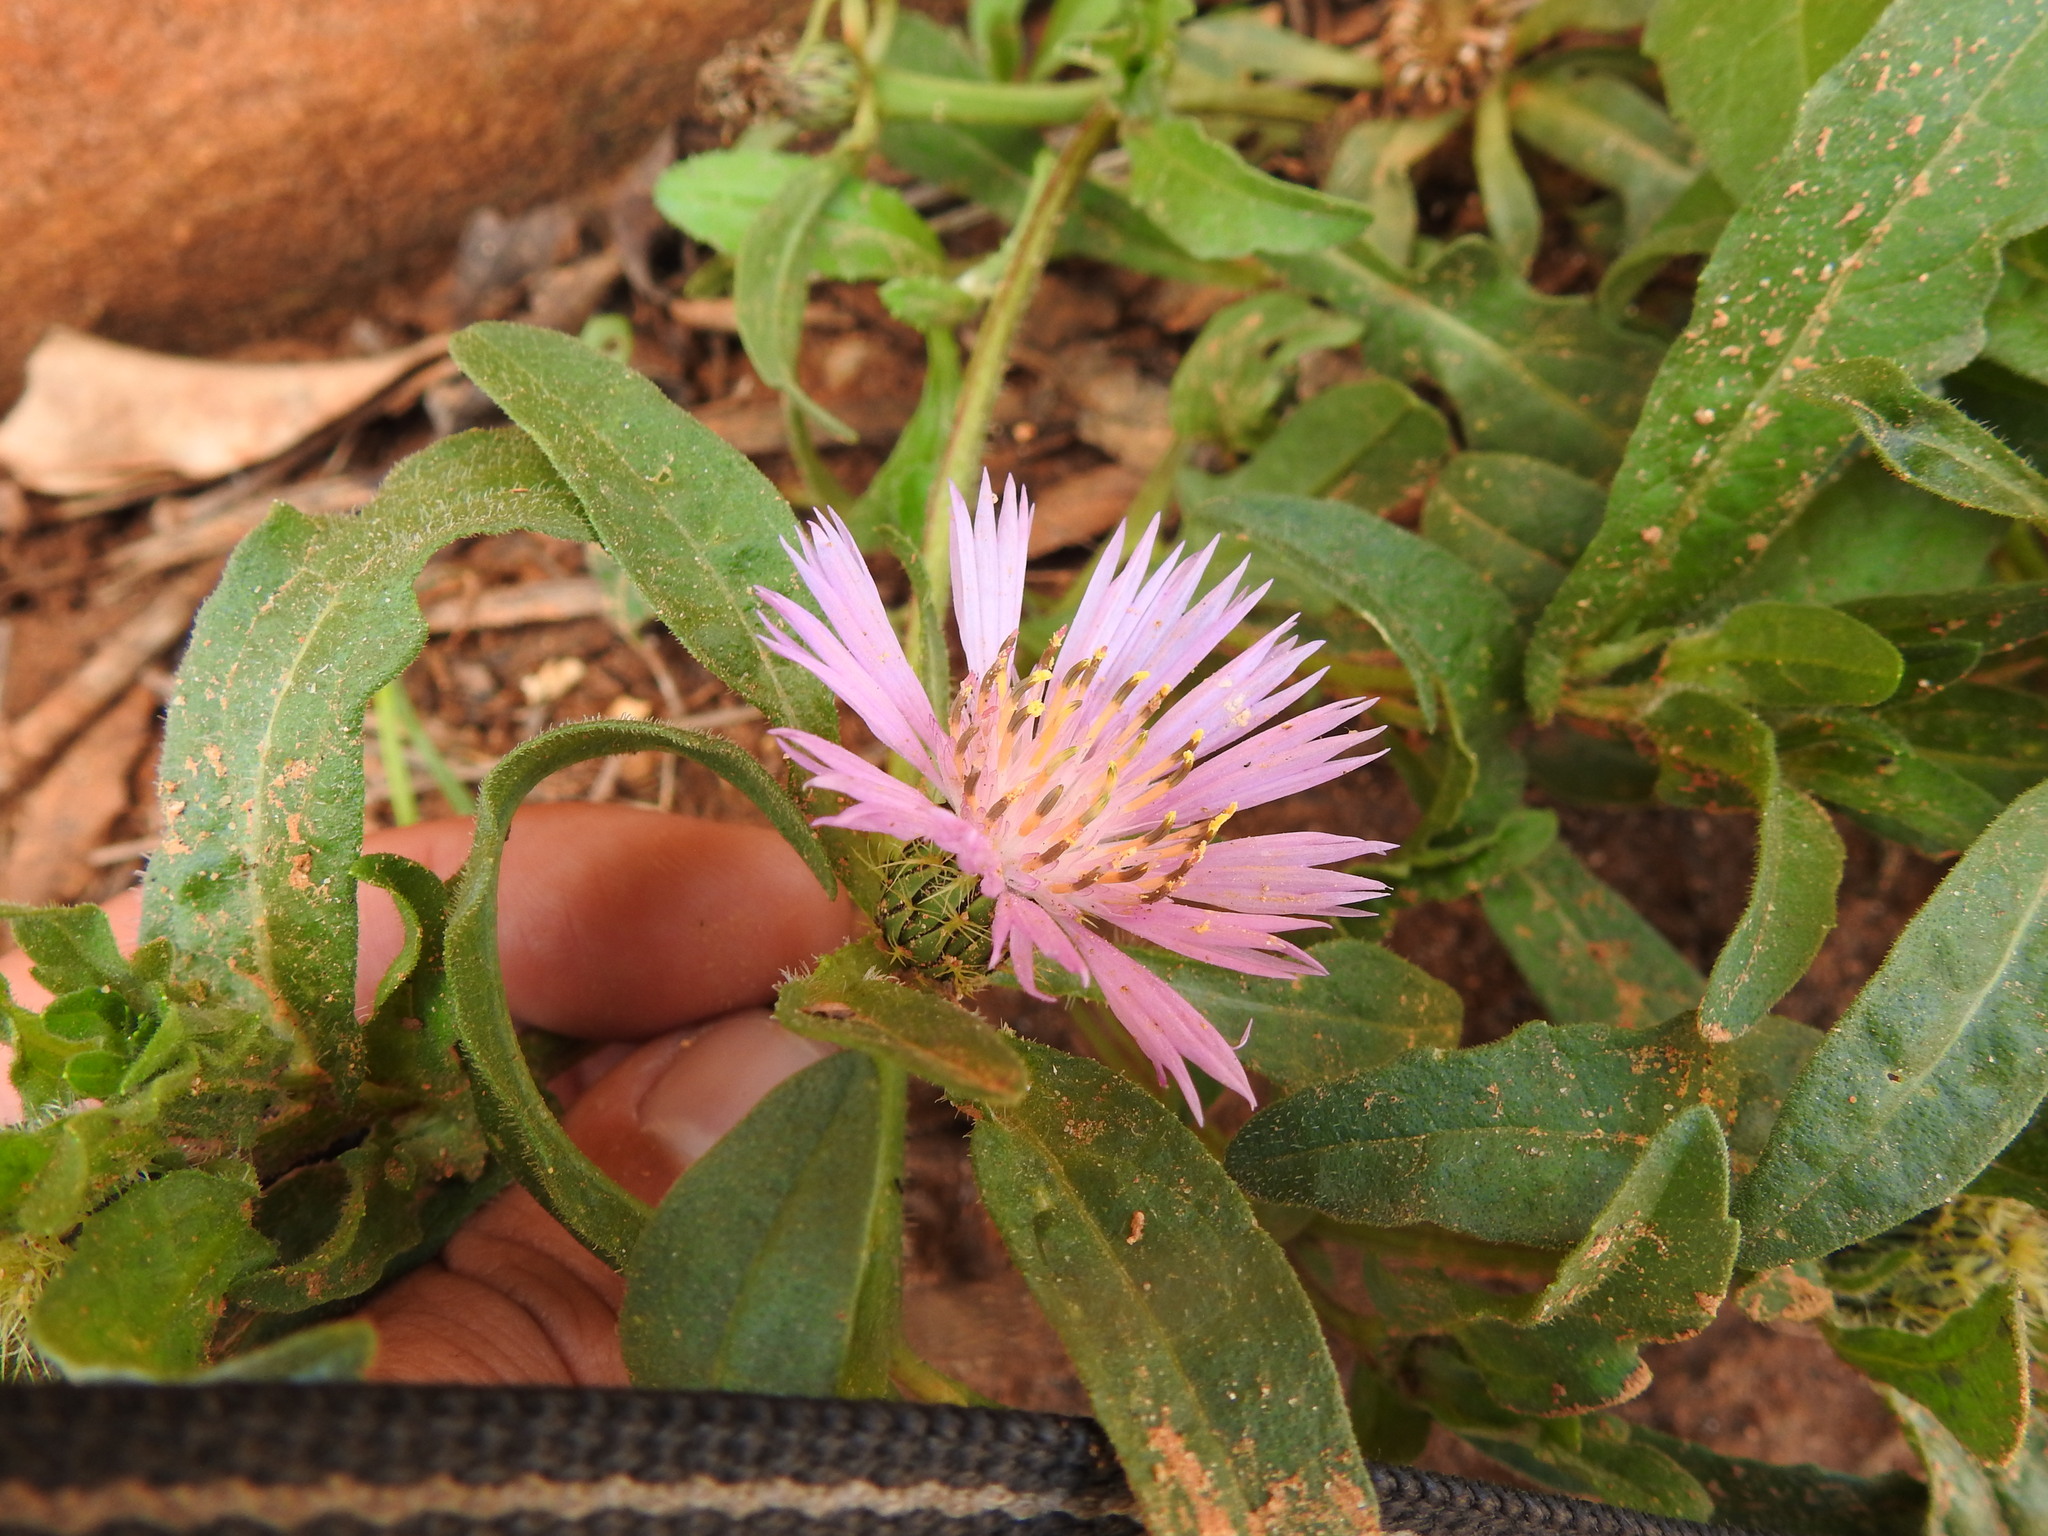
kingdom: Plantae
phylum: Tracheophyta
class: Magnoliopsida
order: Asterales
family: Asteraceae
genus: Centaurea
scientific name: Centaurea pullata
